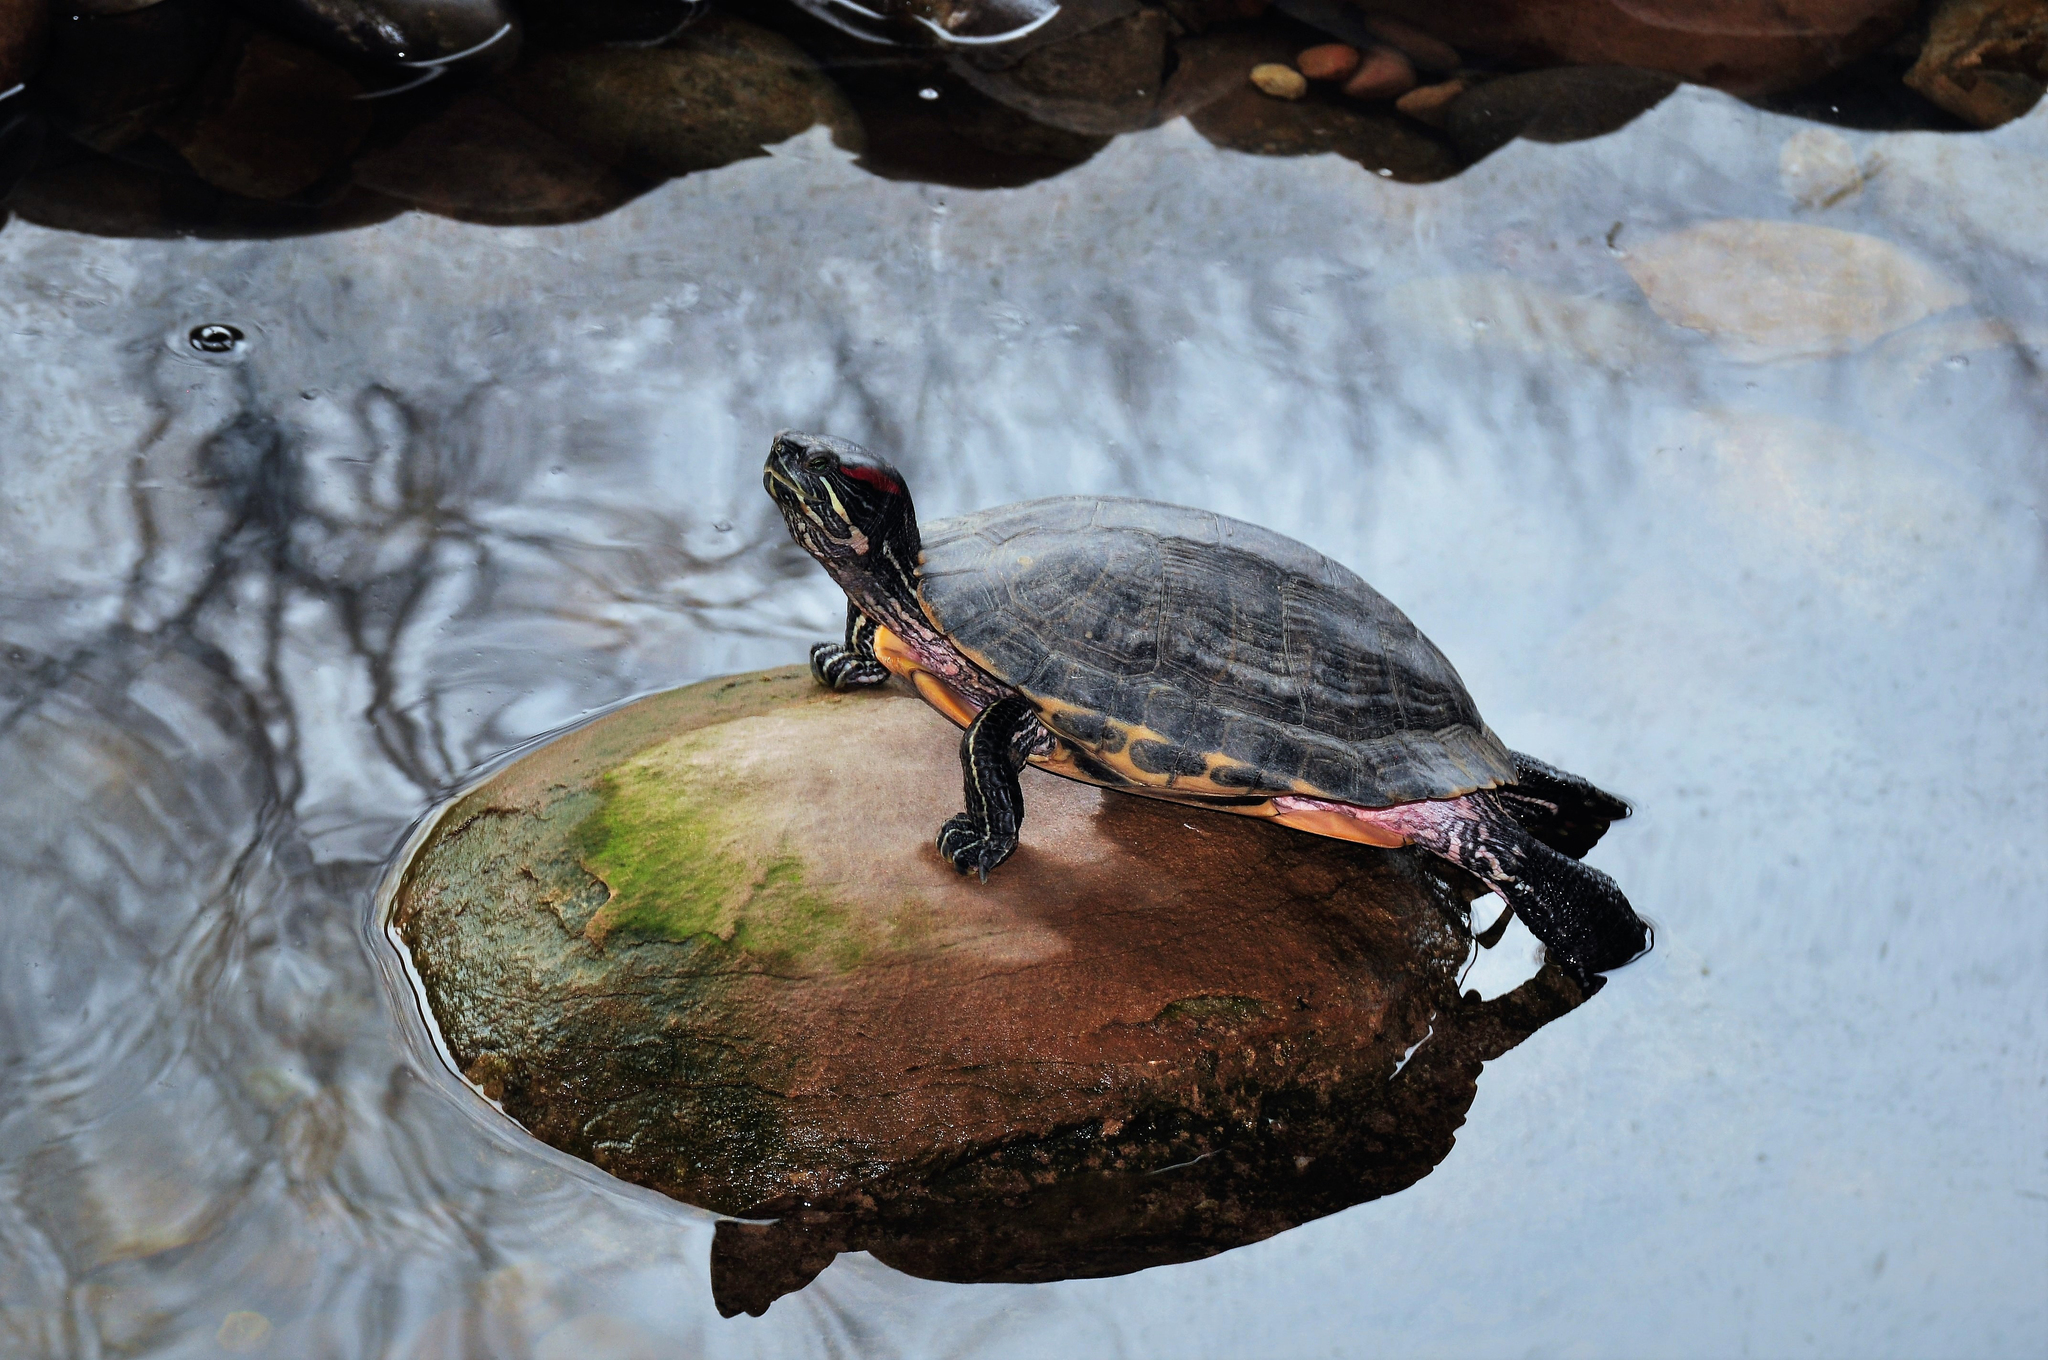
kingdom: Animalia
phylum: Chordata
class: Testudines
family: Emydidae
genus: Trachemys
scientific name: Trachemys scripta
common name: Slider
